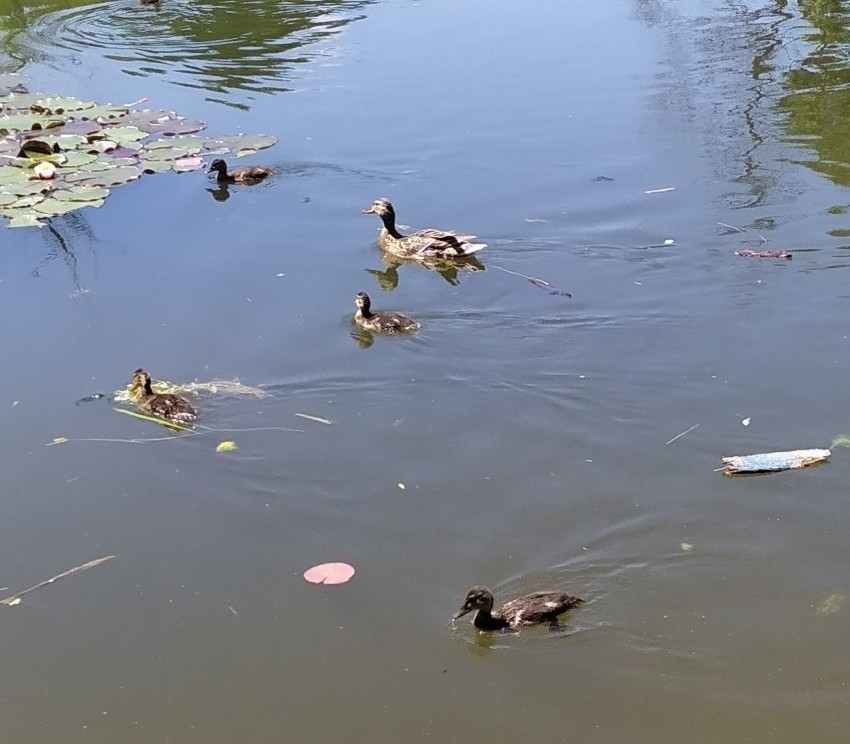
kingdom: Animalia
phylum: Chordata
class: Aves
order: Anseriformes
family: Anatidae
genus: Anas
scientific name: Anas platyrhynchos
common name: Mallard
